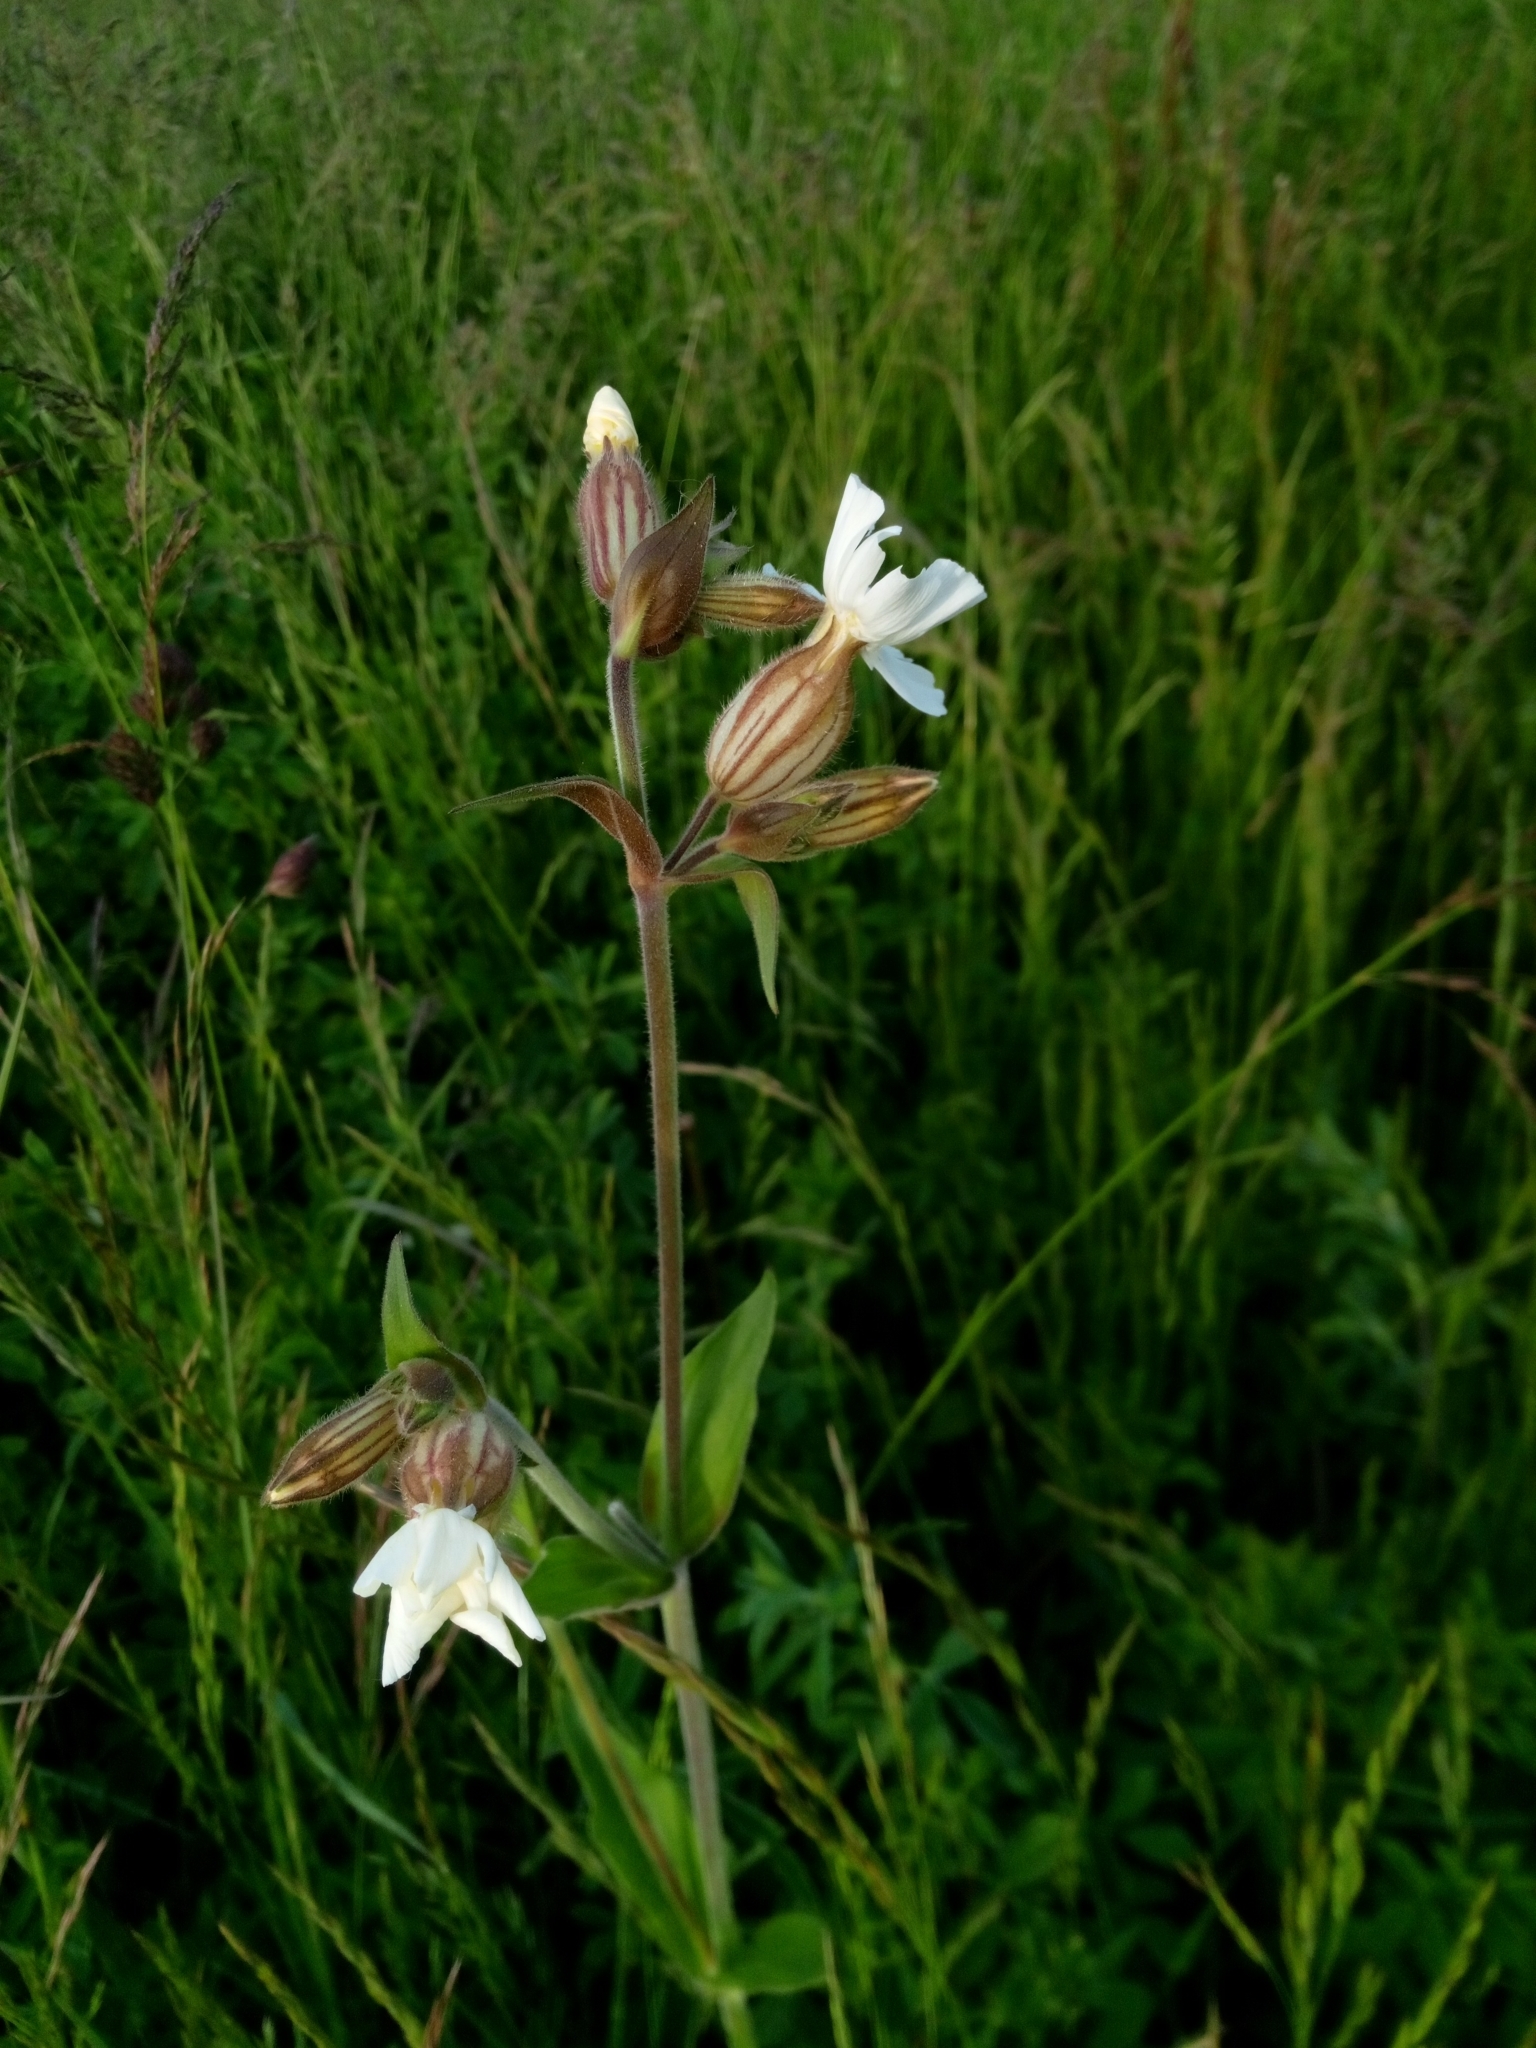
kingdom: Plantae
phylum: Tracheophyta
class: Magnoliopsida
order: Caryophyllales
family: Caryophyllaceae
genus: Silene
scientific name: Silene latifolia
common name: White campion
